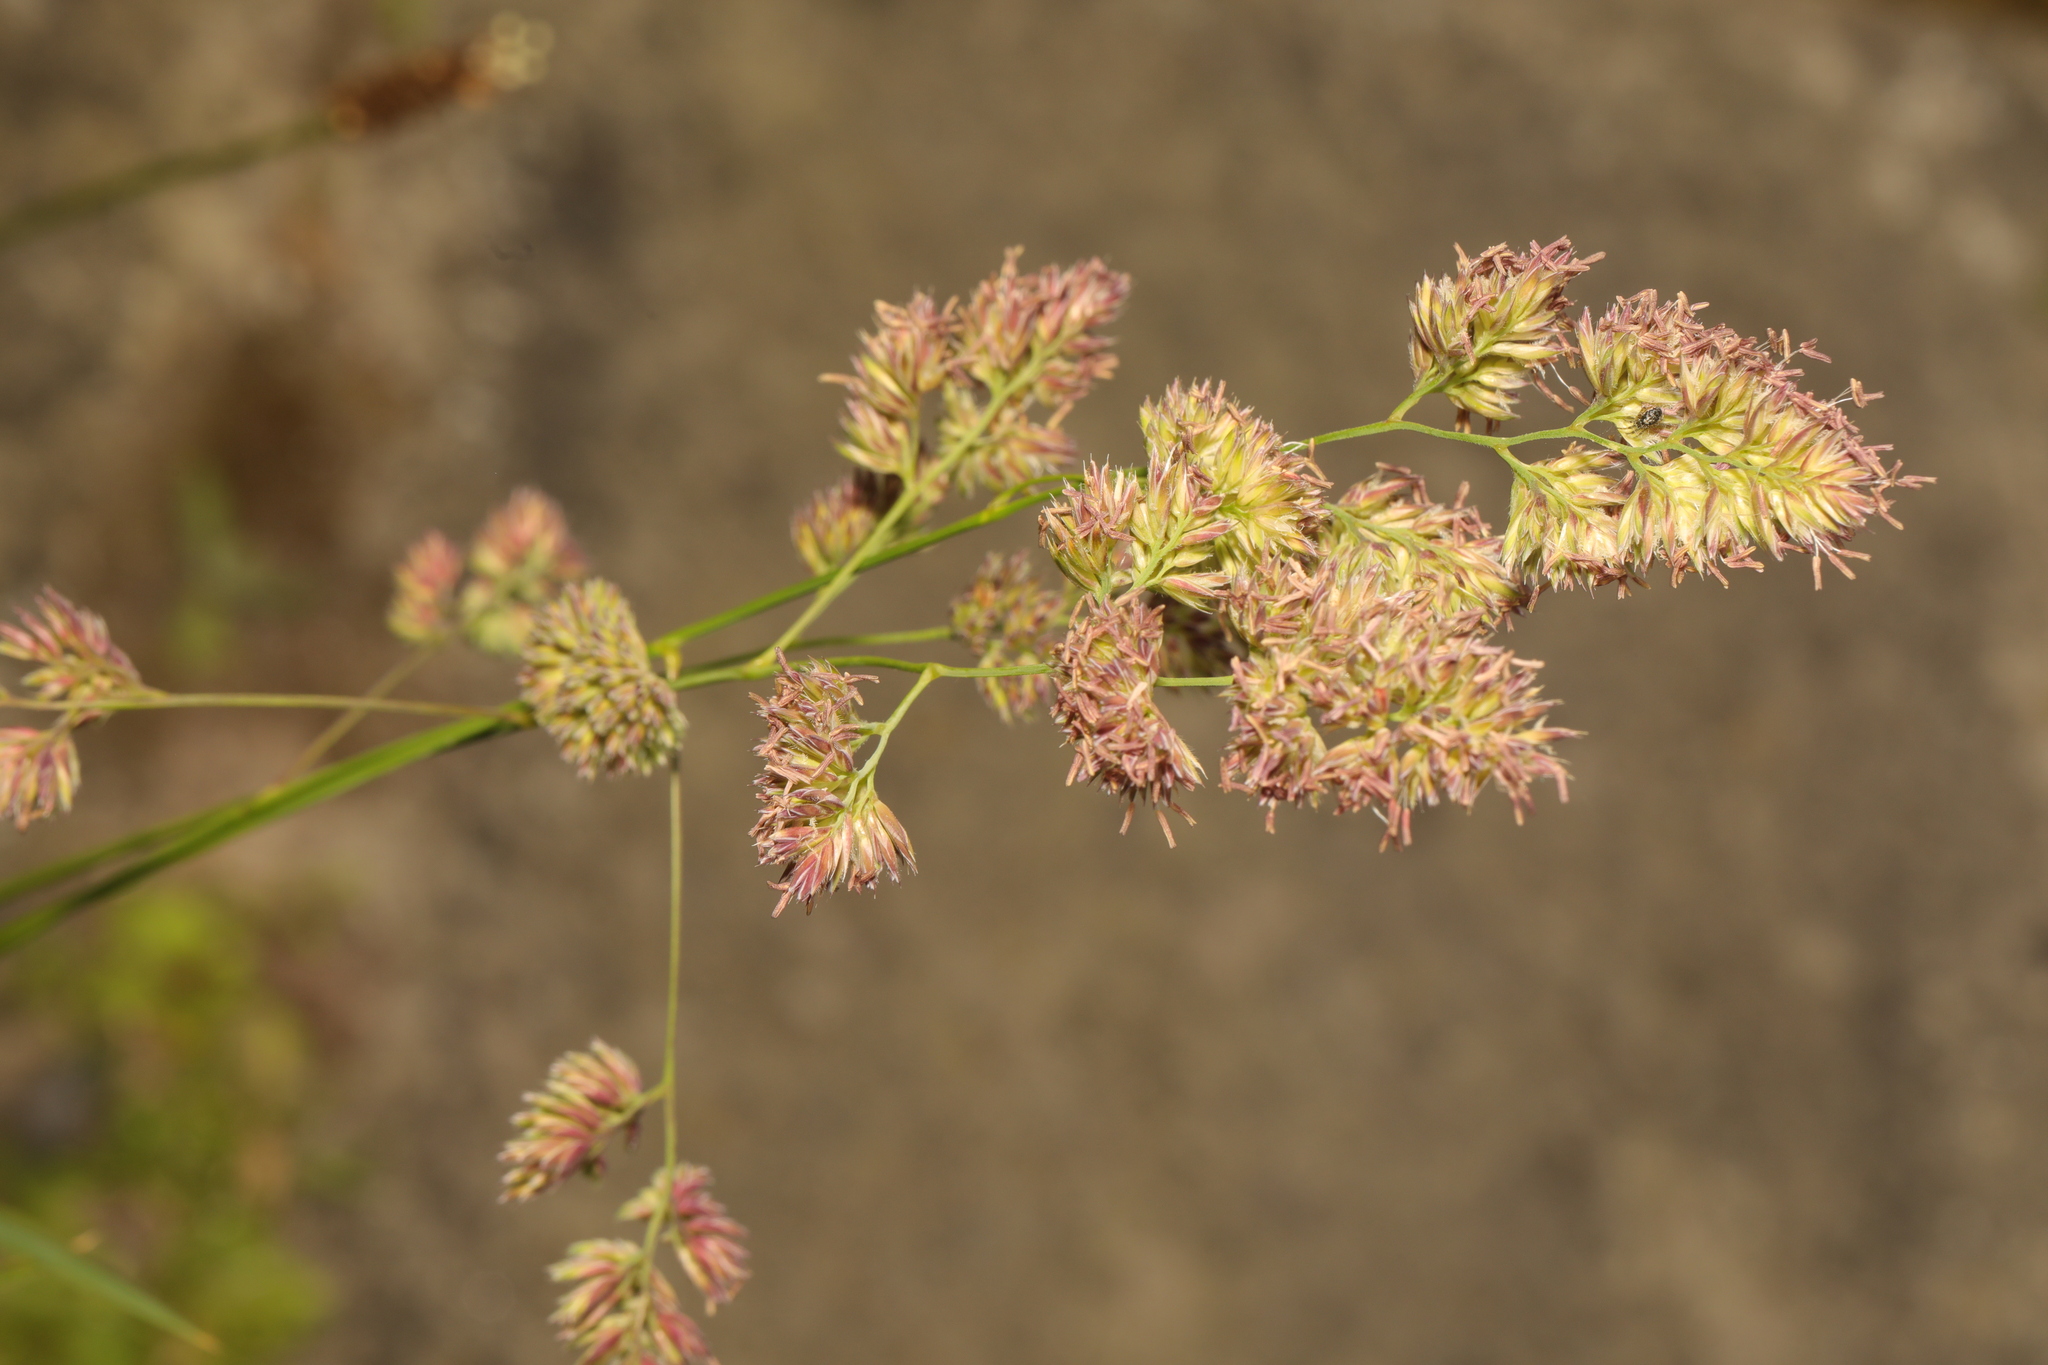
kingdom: Plantae
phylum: Tracheophyta
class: Liliopsida
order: Poales
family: Poaceae
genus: Dactylis
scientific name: Dactylis glomerata
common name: Orchardgrass
